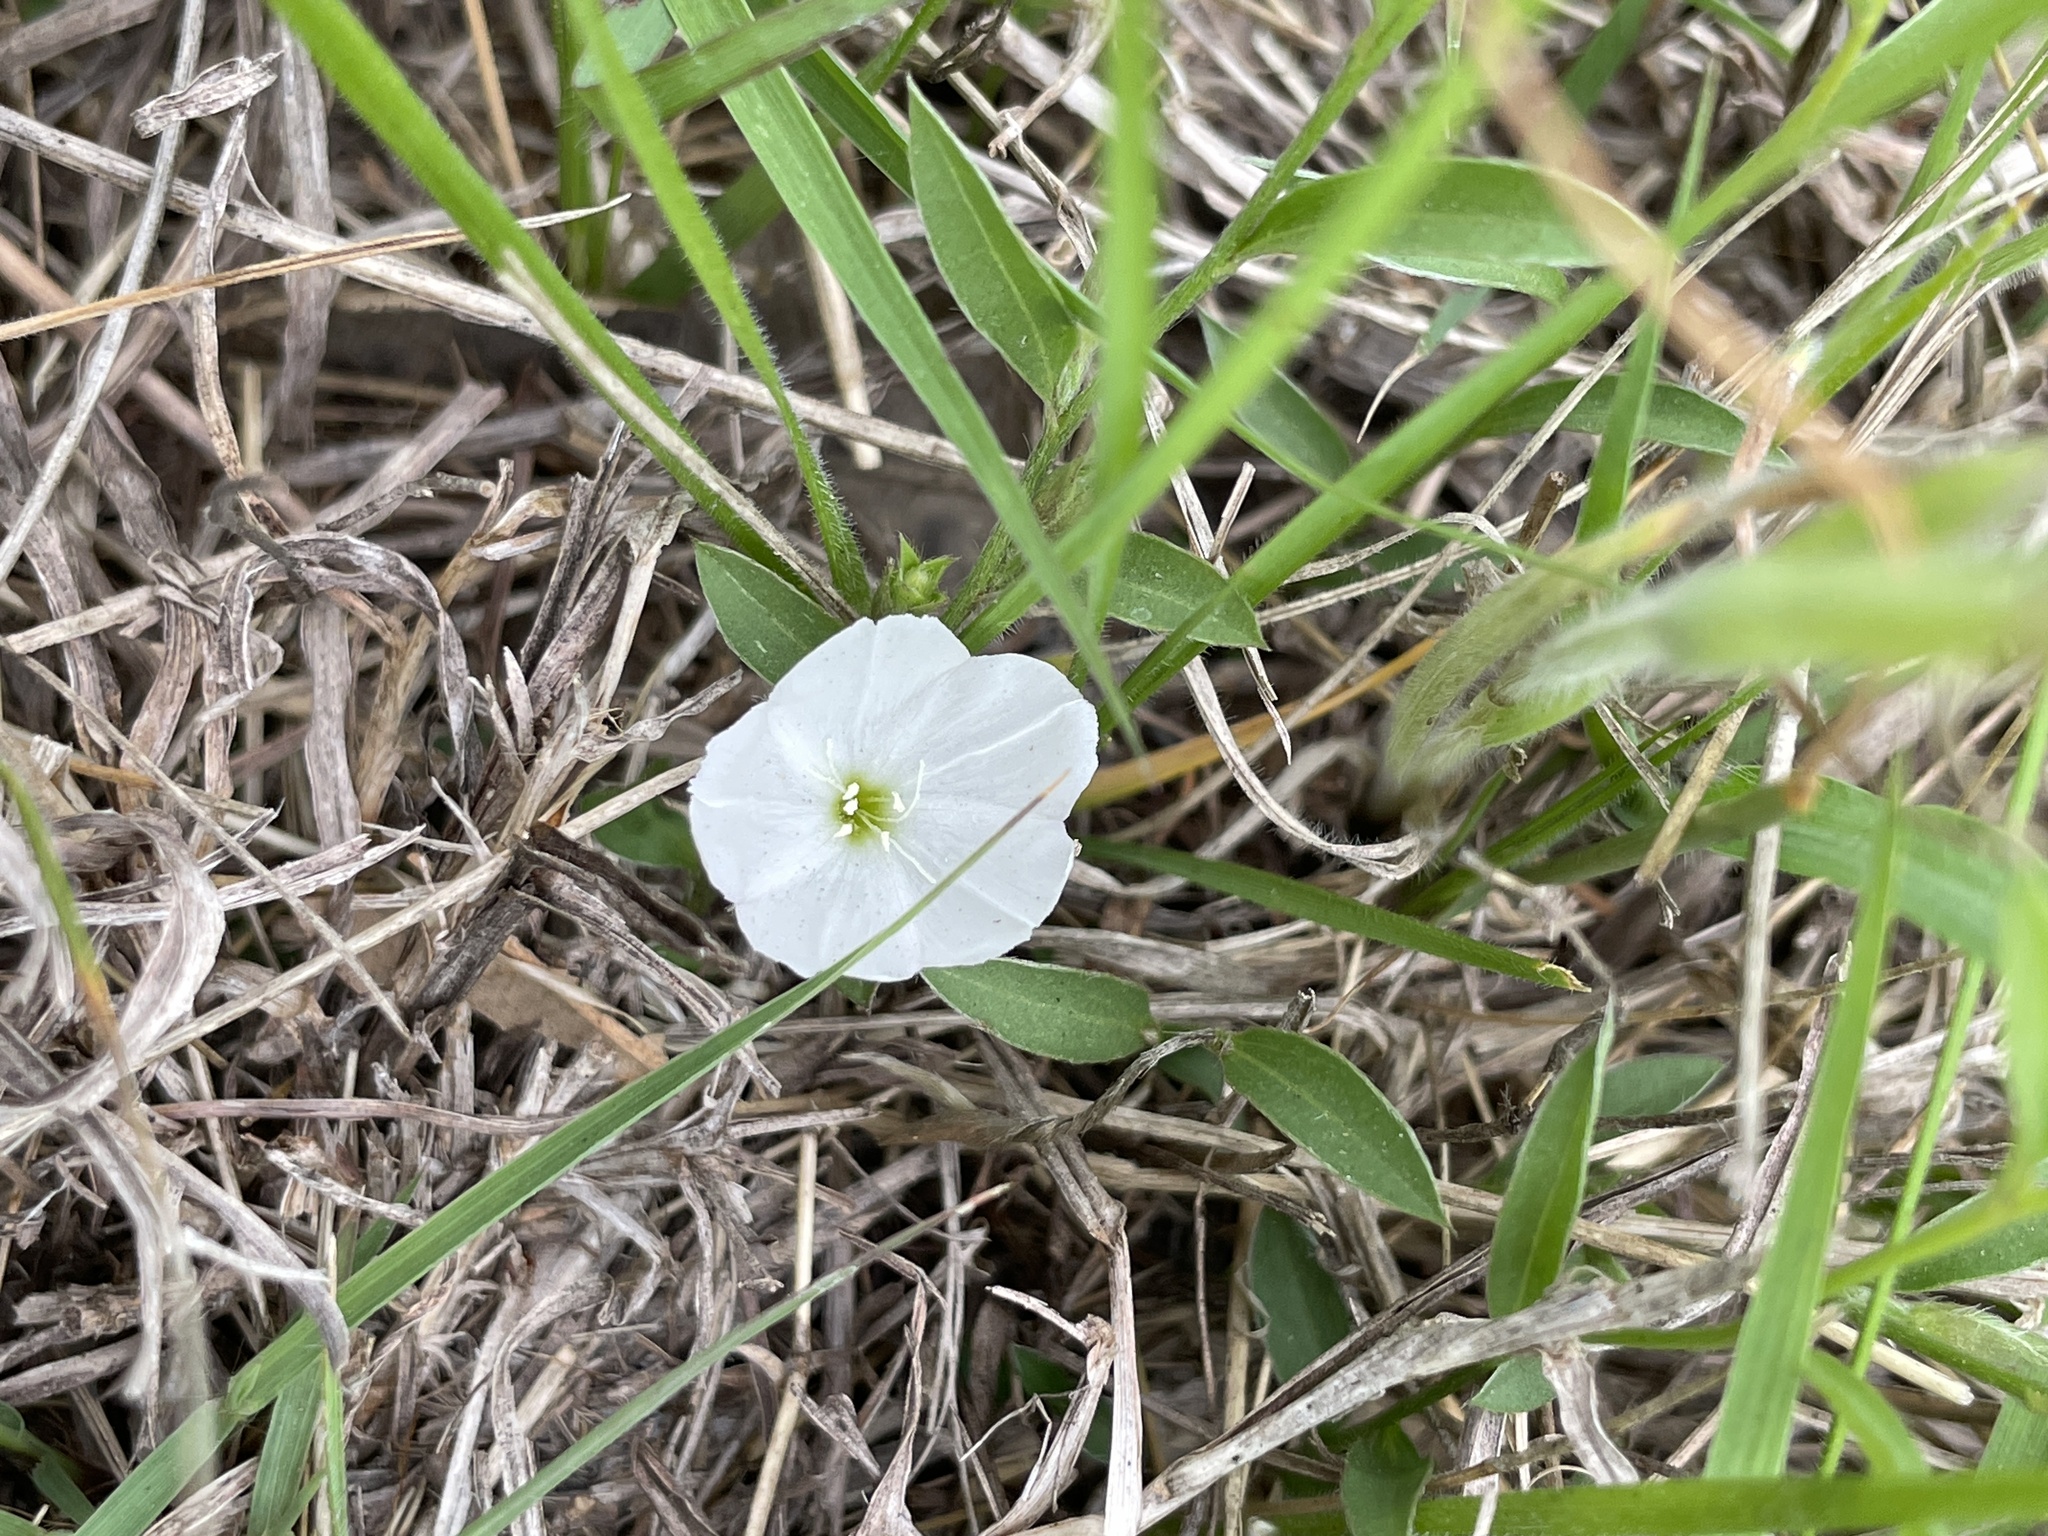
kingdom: Plantae
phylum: Tracheophyta
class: Magnoliopsida
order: Solanales
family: Convolvulaceae
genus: Evolvulus
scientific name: Evolvulus sericeus
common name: Blue dots
